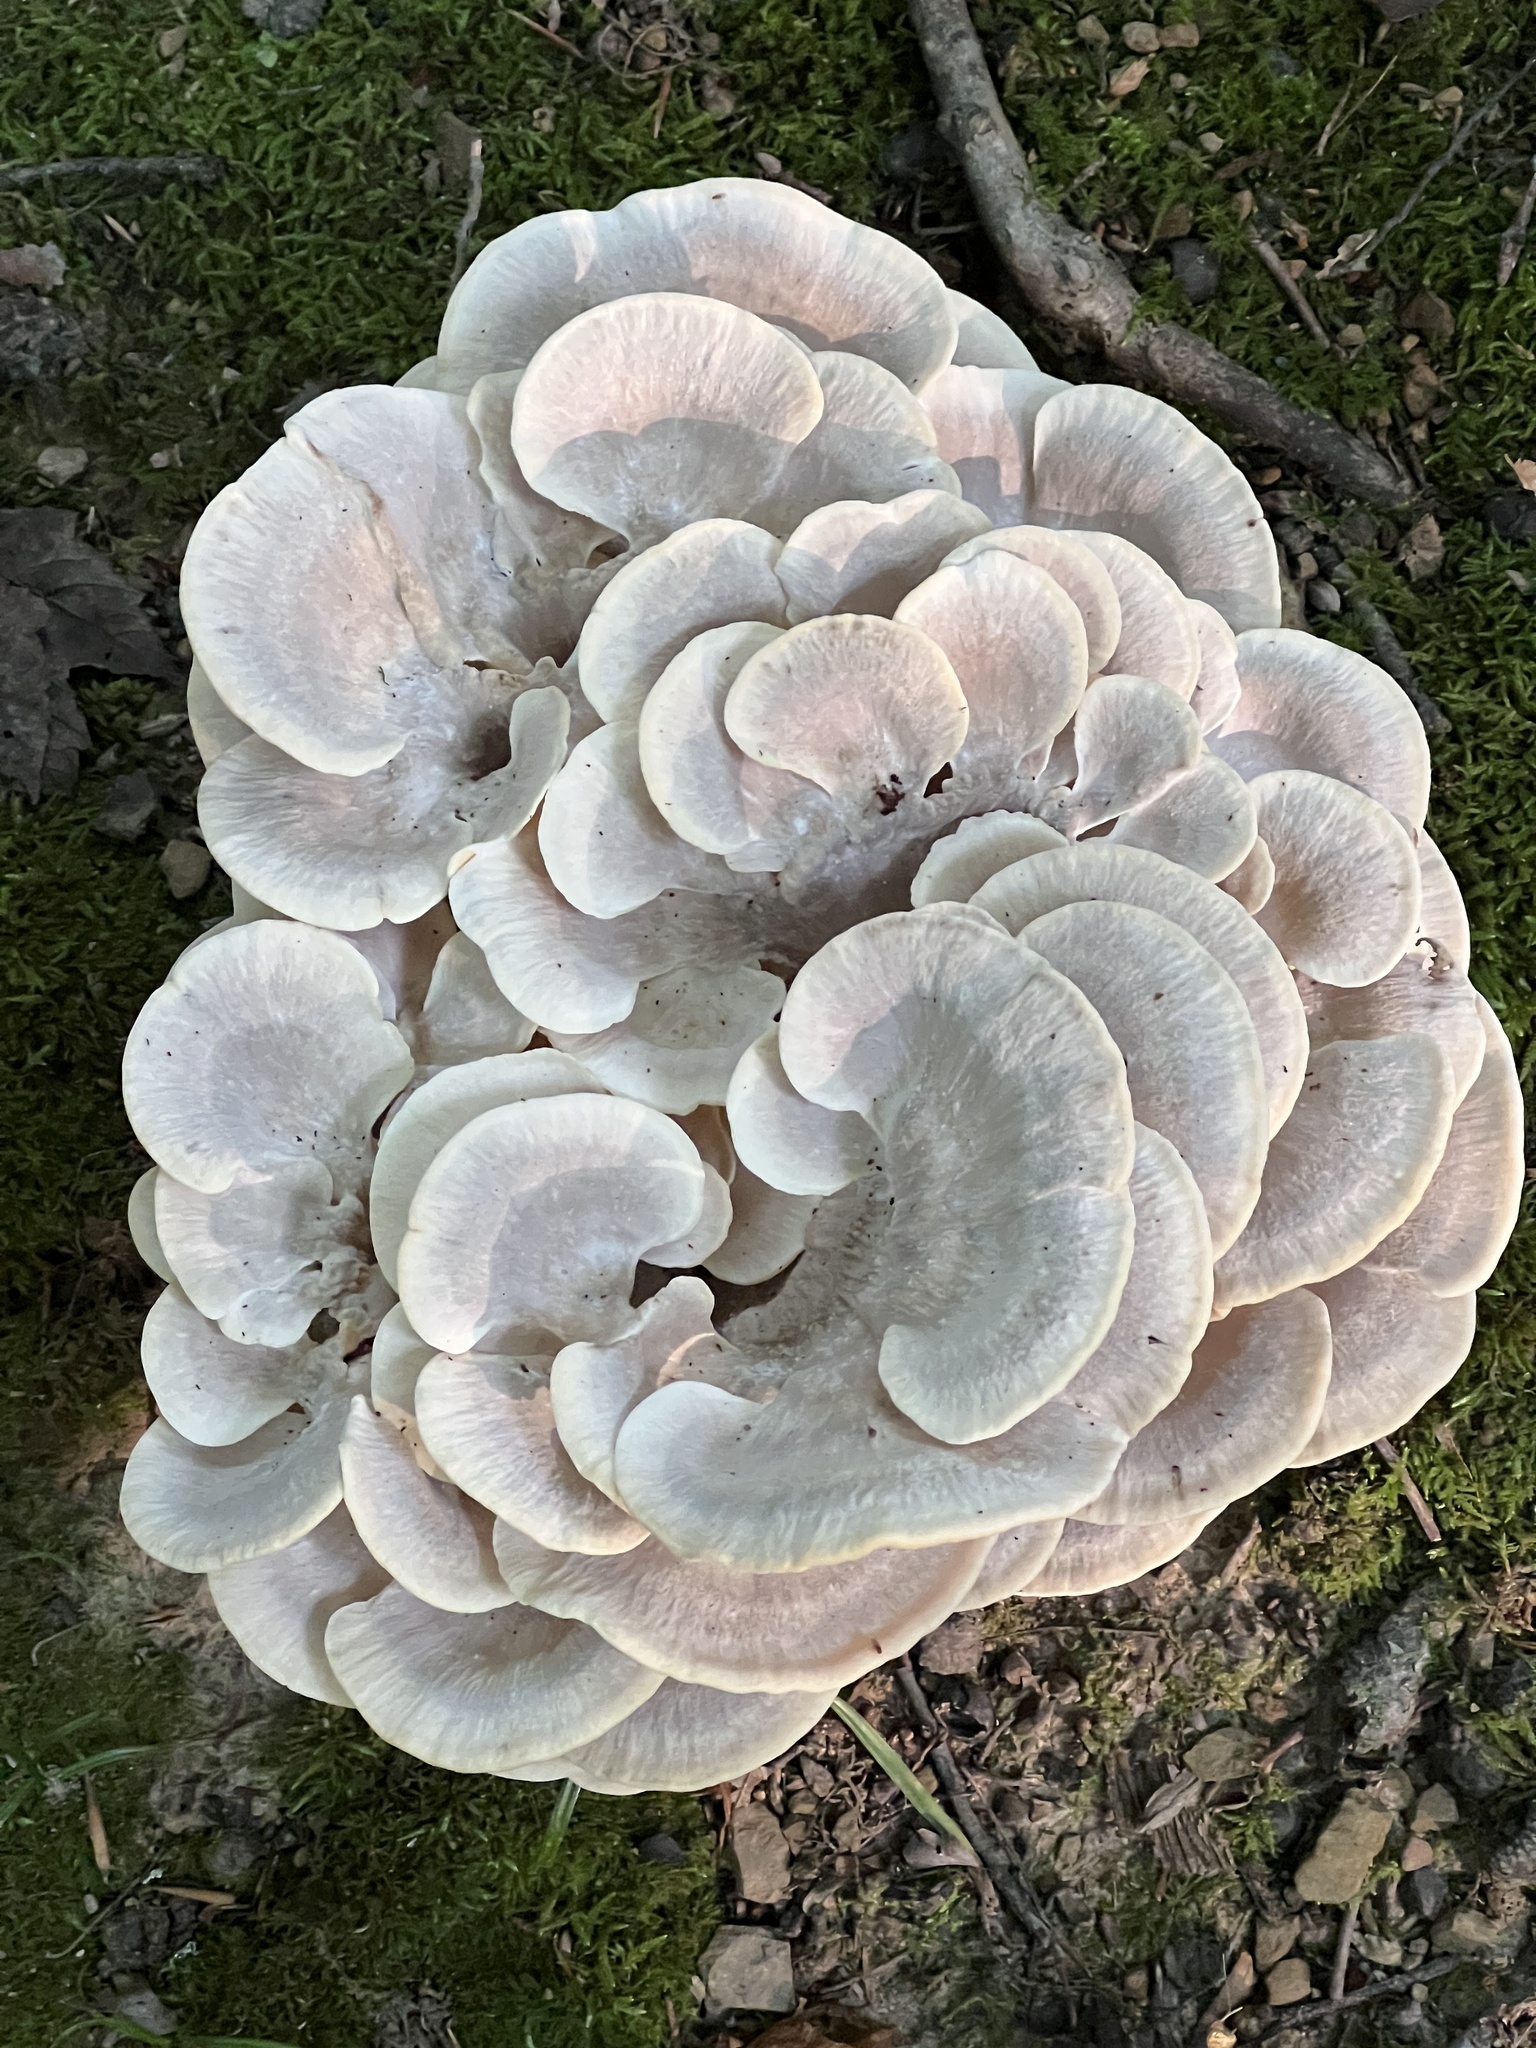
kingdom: Fungi
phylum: Basidiomycota
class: Agaricomycetes
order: Polyporales
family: Meripilaceae
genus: Meripilus
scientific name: Meripilus sumstinei
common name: Black-staining polypore
